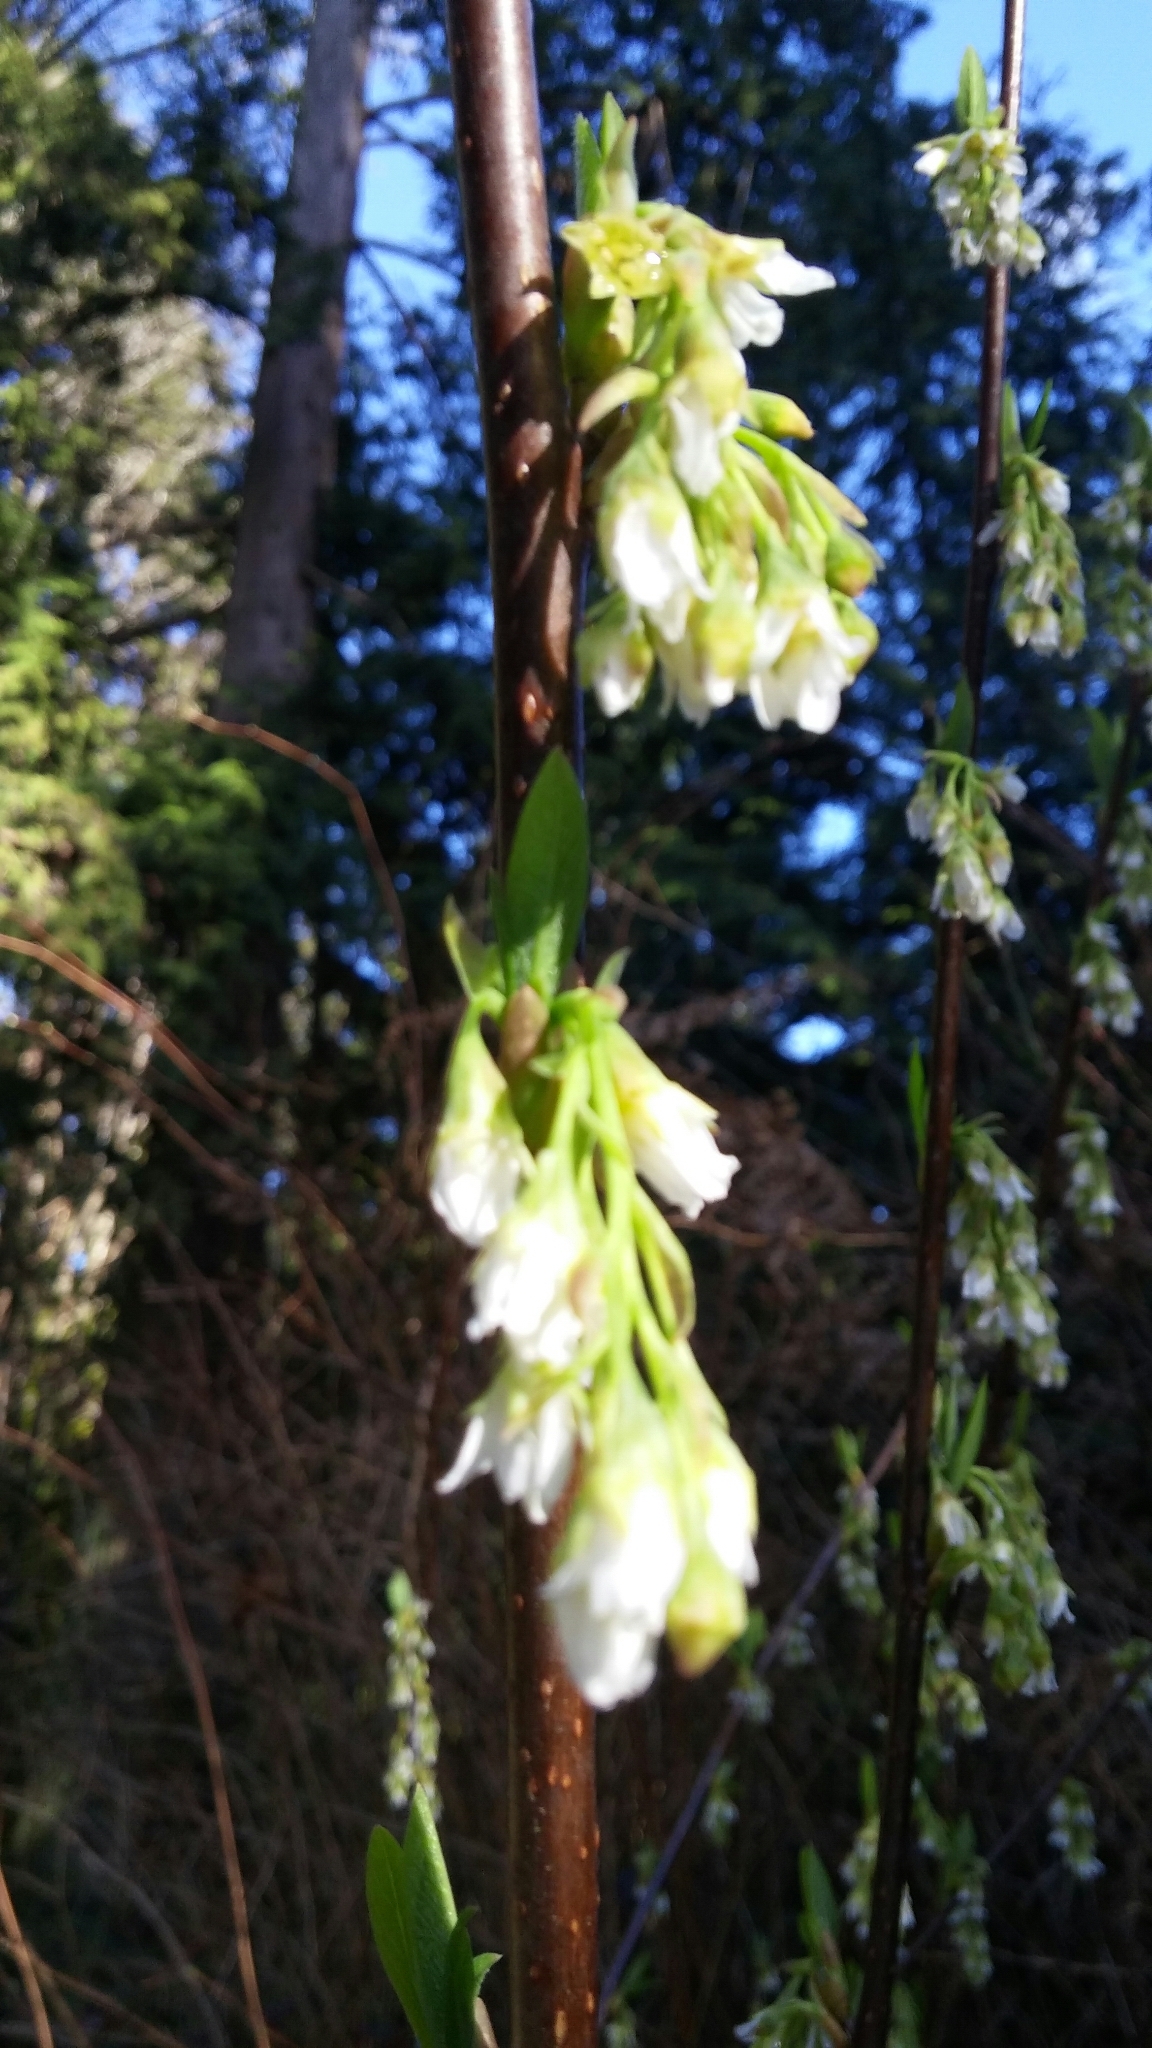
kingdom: Plantae
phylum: Tracheophyta
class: Magnoliopsida
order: Rosales
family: Rosaceae
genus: Oemleria
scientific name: Oemleria cerasiformis
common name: Osoberry
